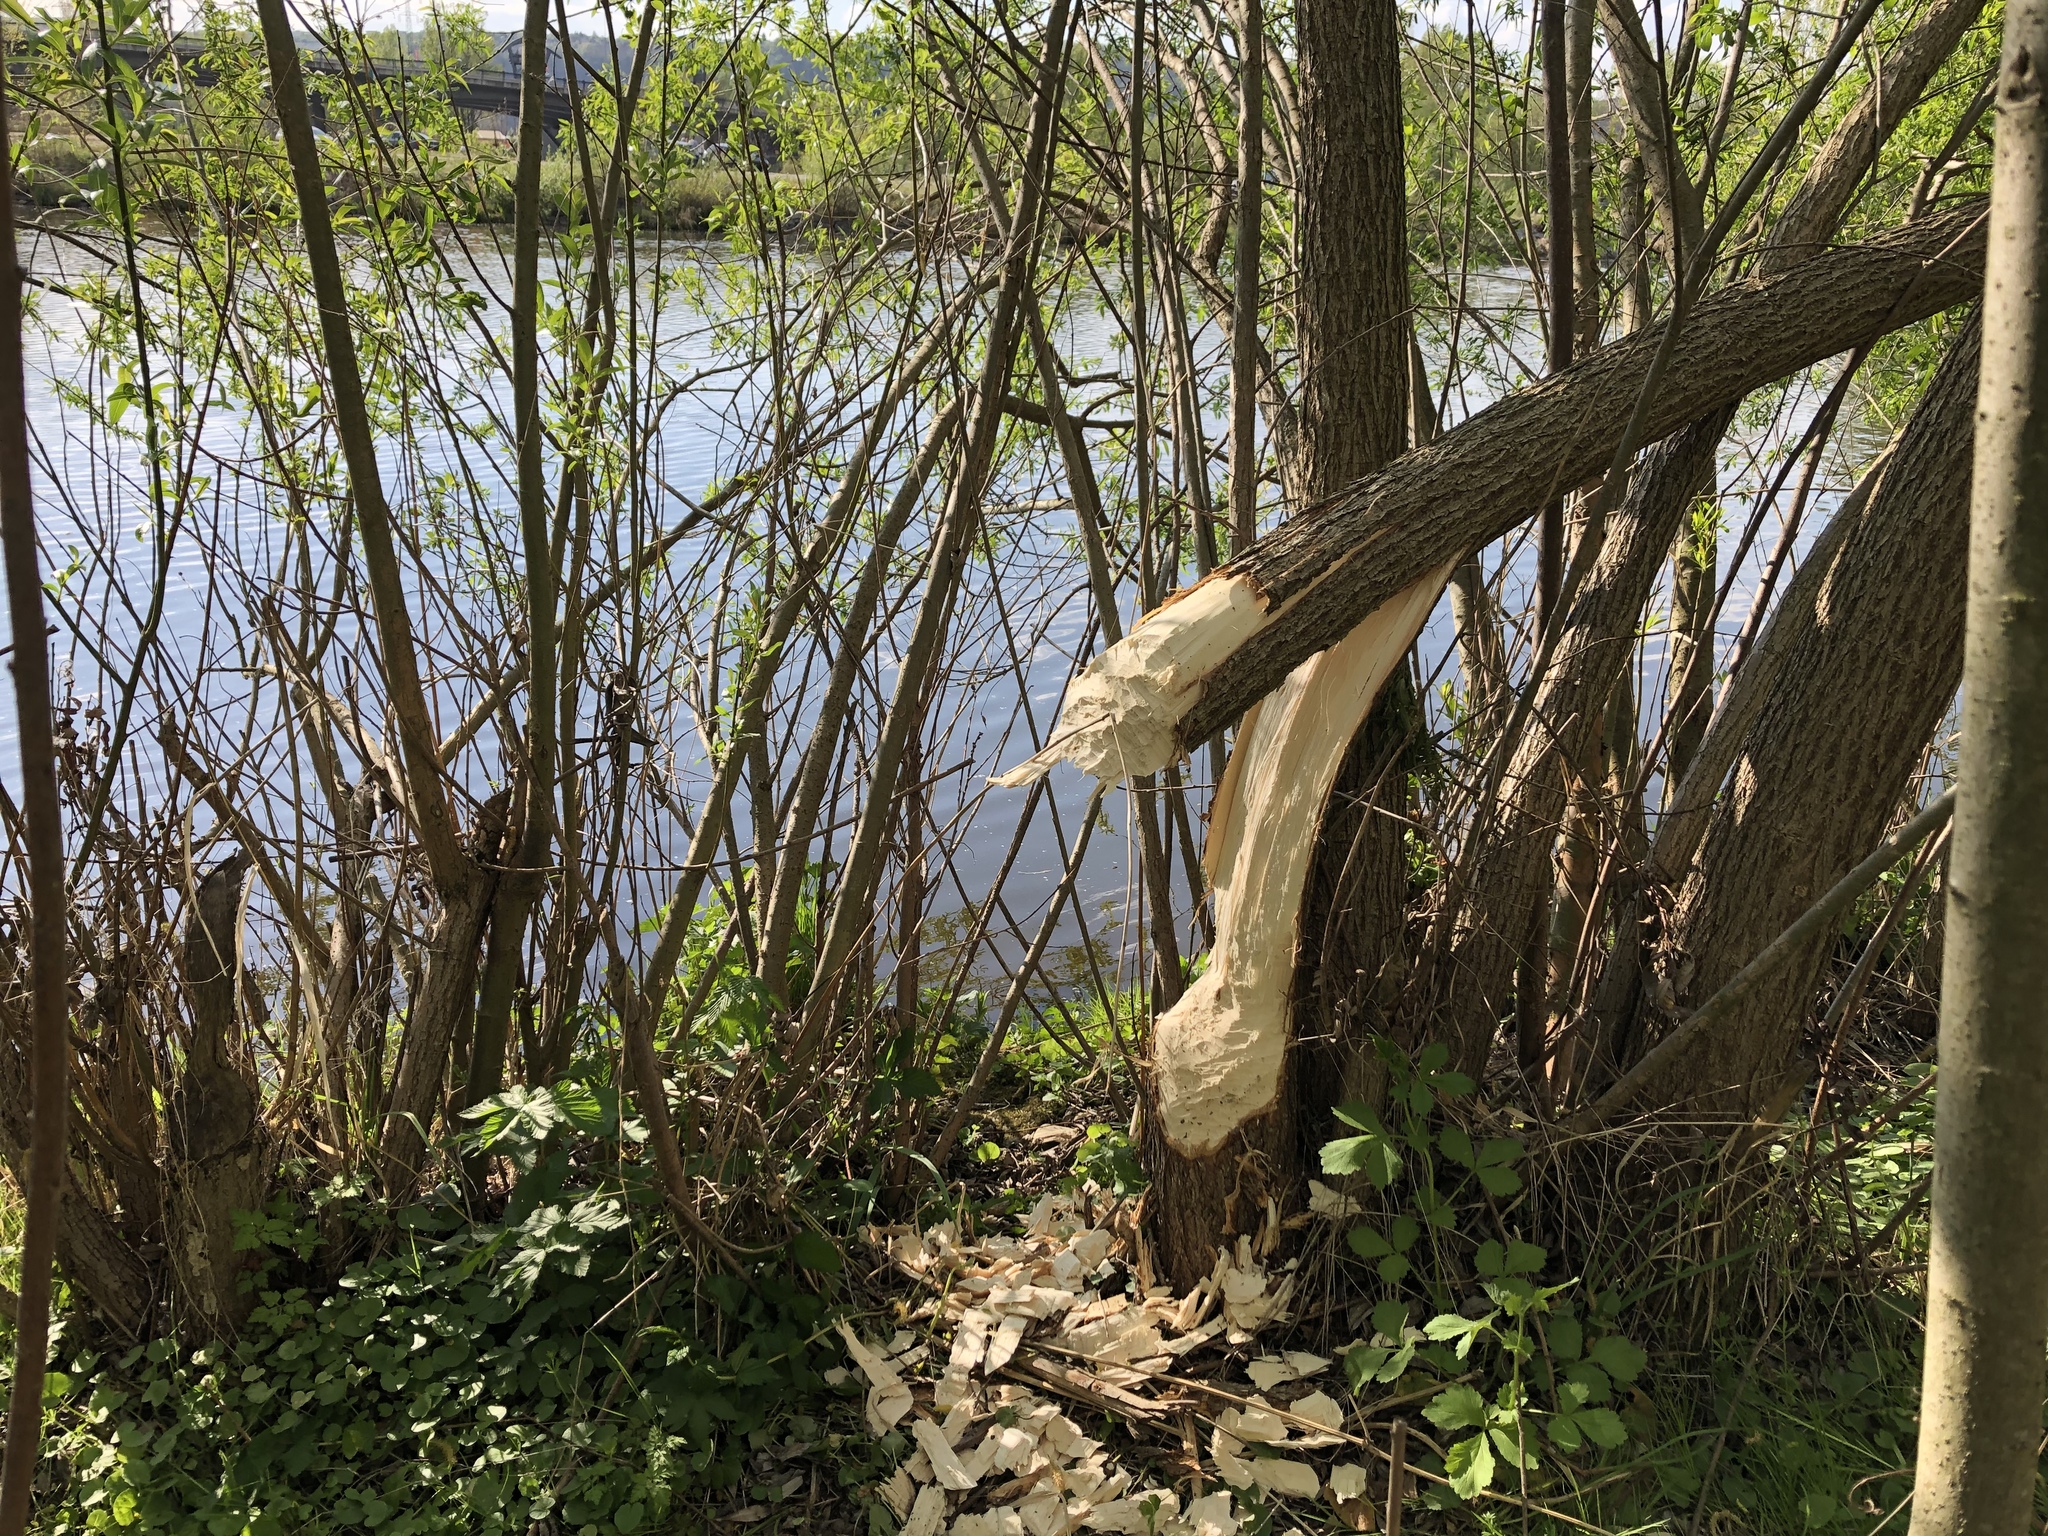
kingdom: Animalia
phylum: Chordata
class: Mammalia
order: Rodentia
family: Castoridae
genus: Castor
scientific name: Castor fiber
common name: Eurasian beaver
